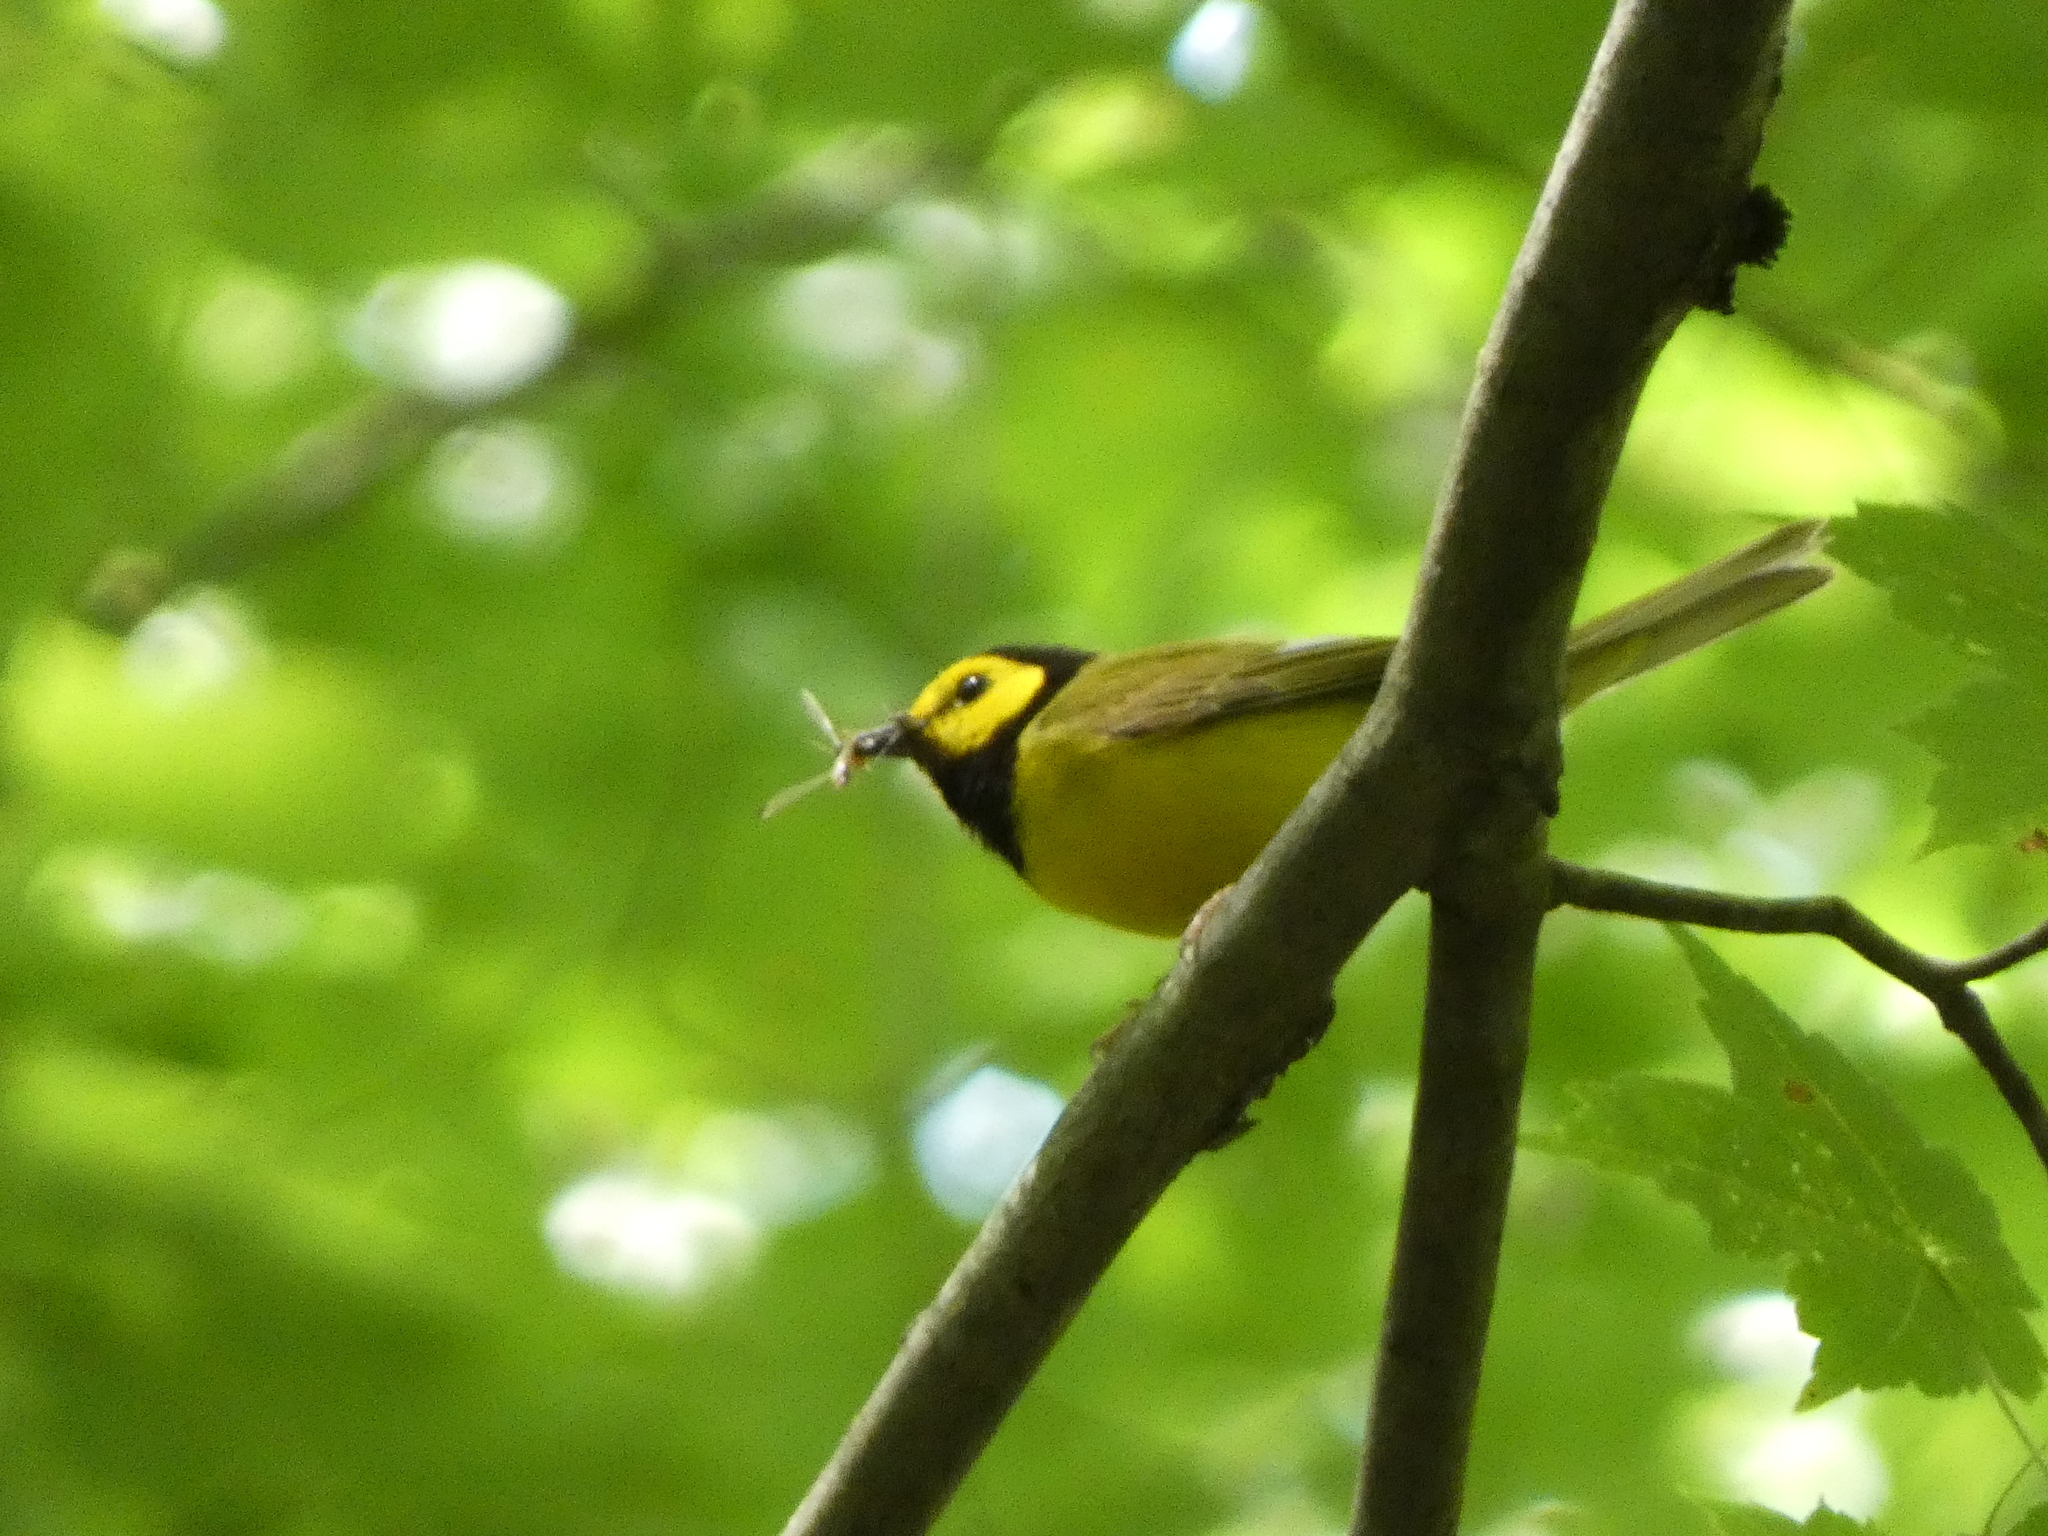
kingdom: Animalia
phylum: Chordata
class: Aves
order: Passeriformes
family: Parulidae
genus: Setophaga
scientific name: Setophaga citrina
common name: Hooded warbler
